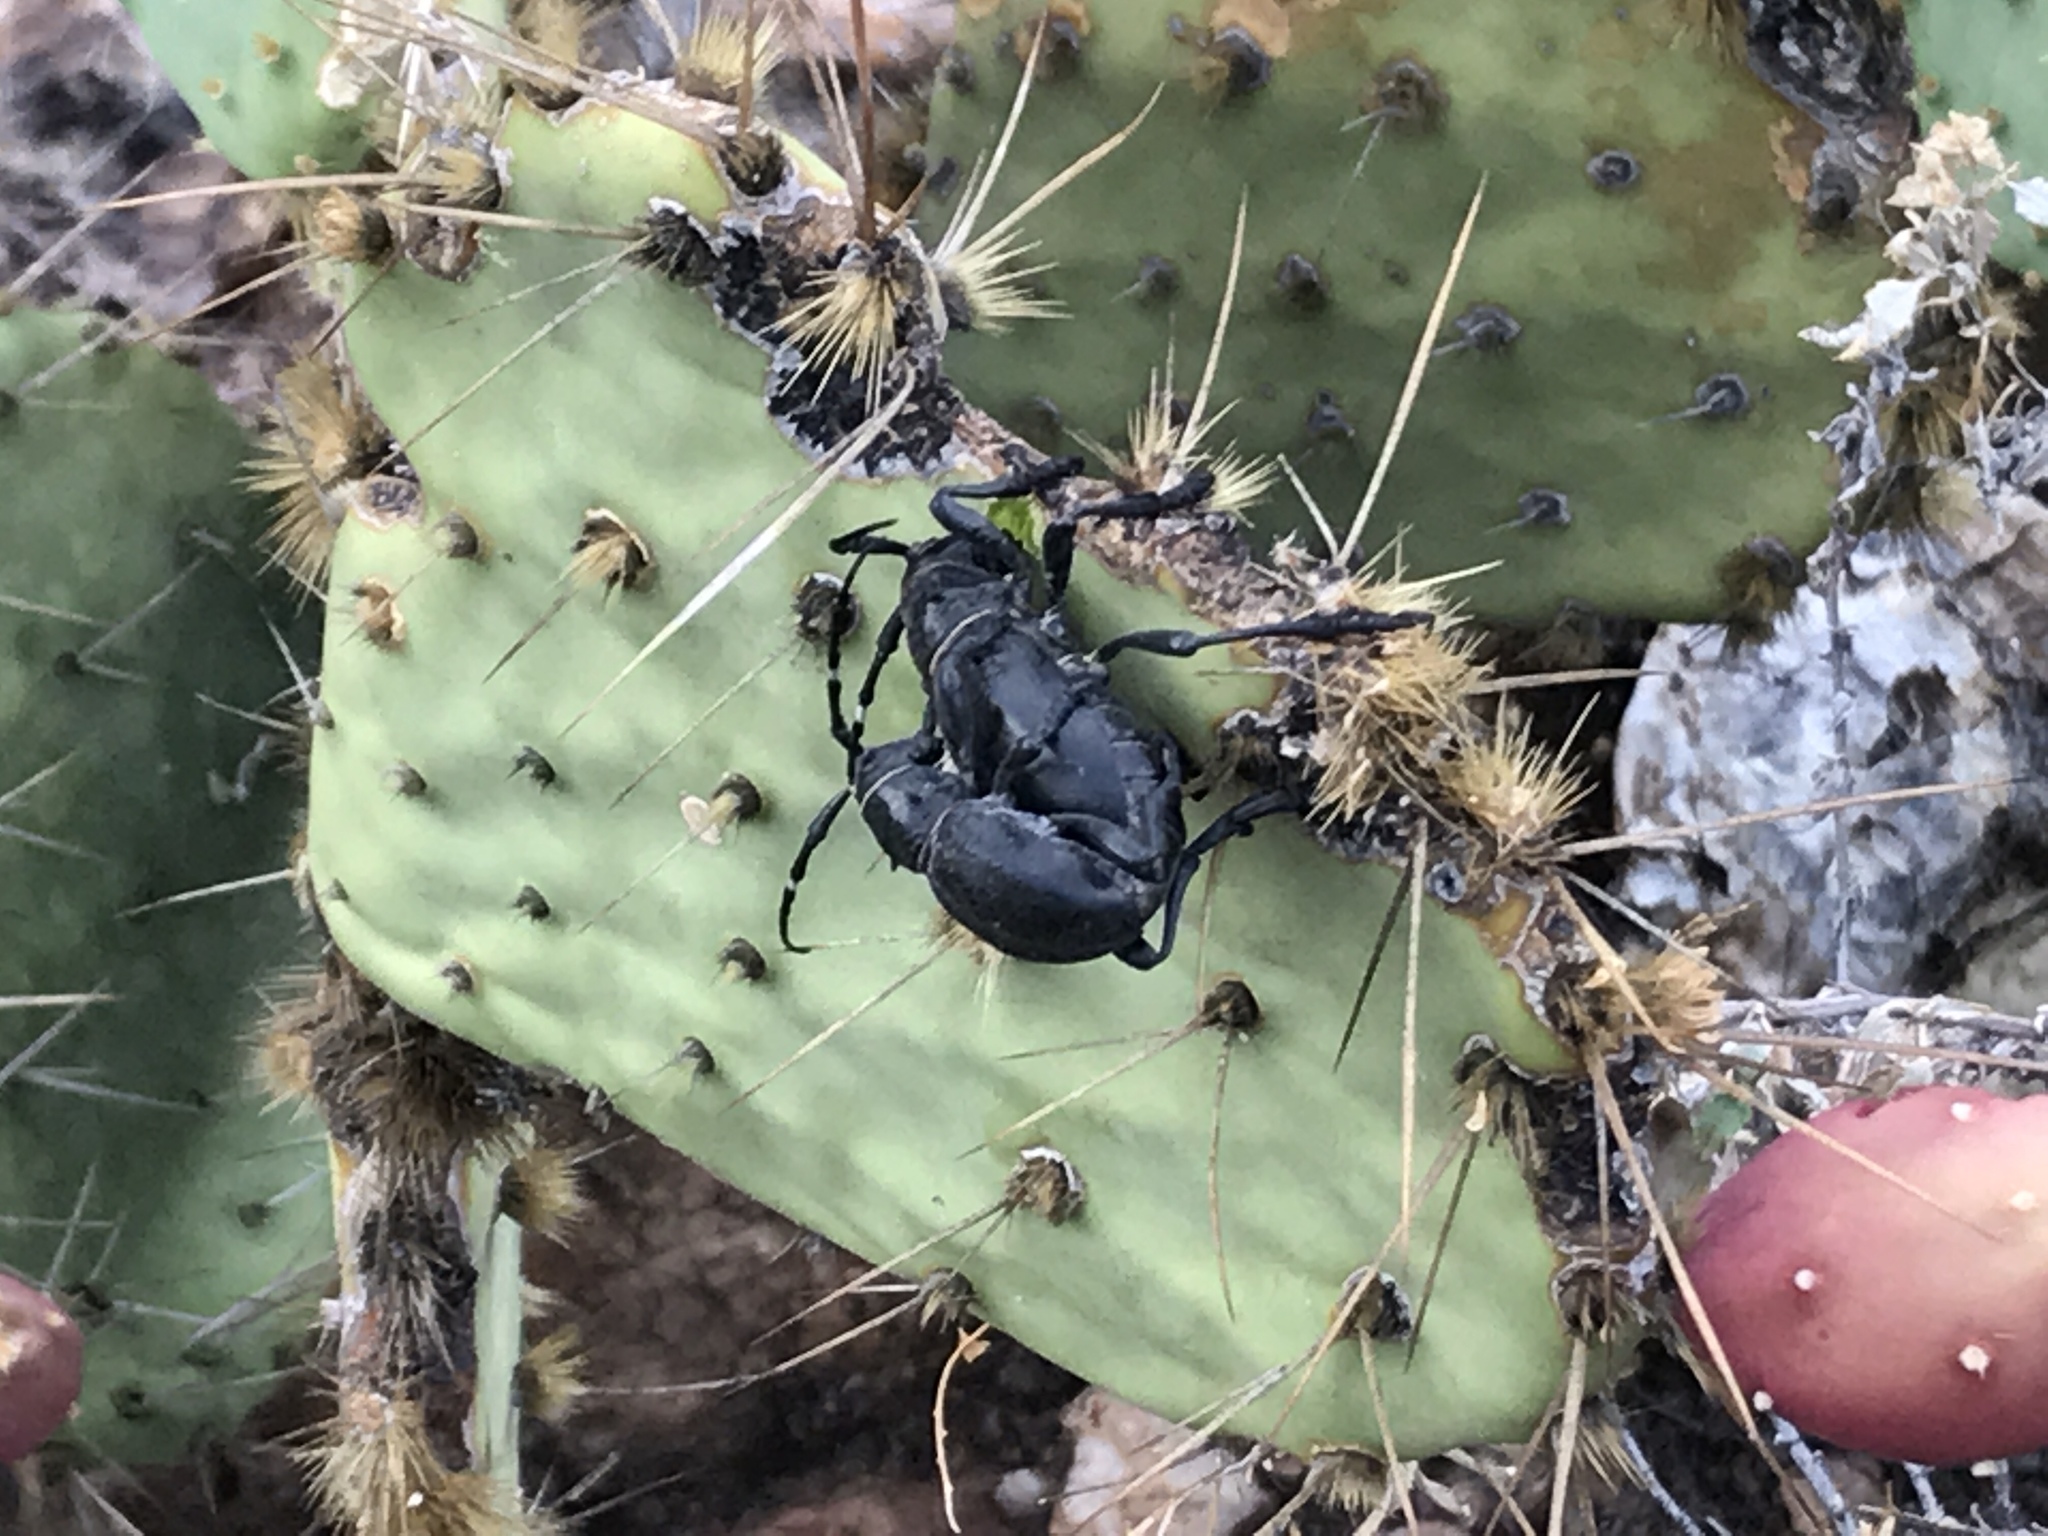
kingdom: Animalia
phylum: Arthropoda
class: Insecta
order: Coleoptera
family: Cerambycidae
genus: Moneilema
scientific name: Moneilema gigas
